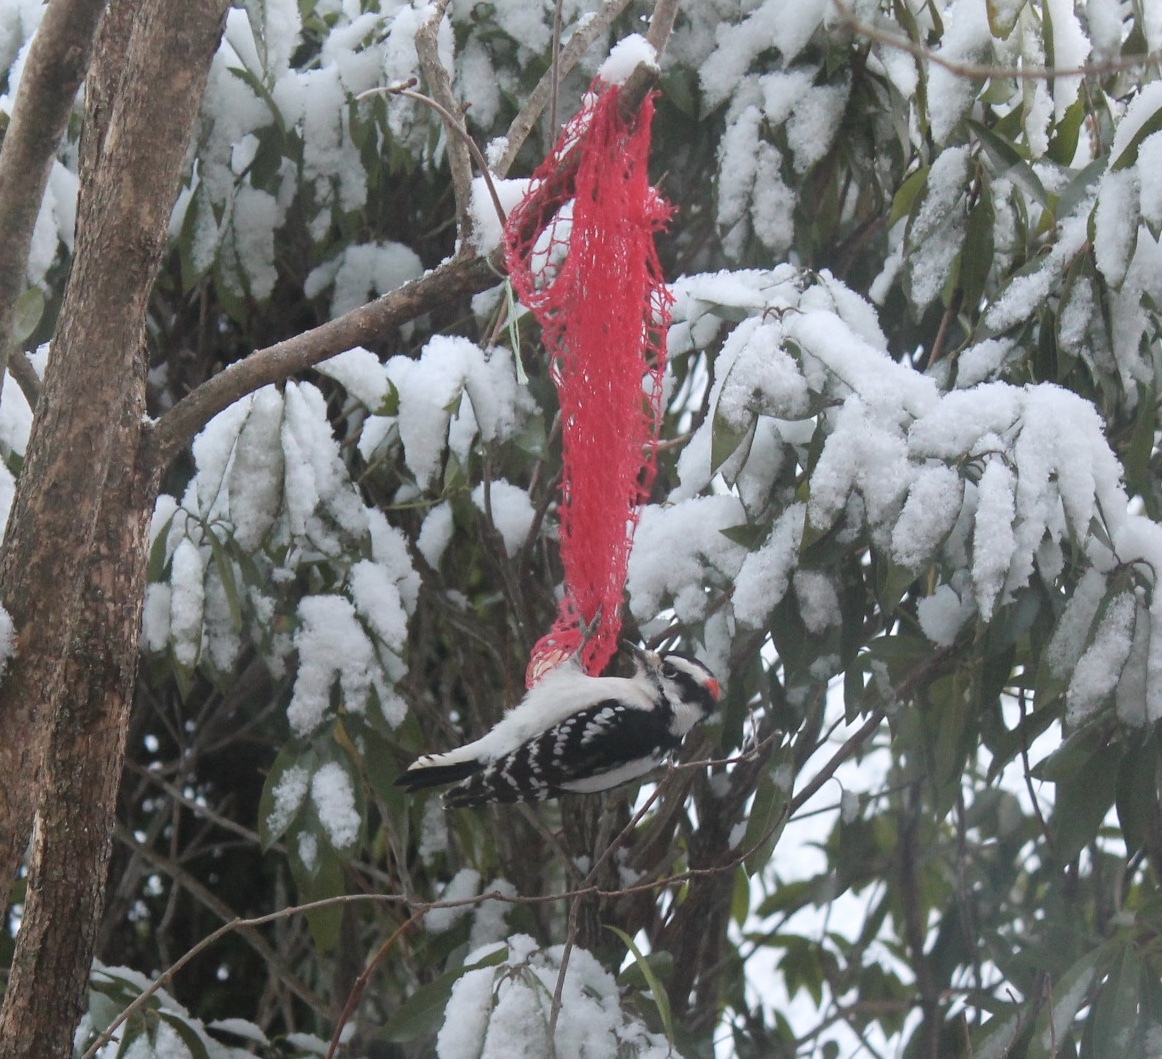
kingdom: Animalia
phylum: Chordata
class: Aves
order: Piciformes
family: Picidae
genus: Dryobates
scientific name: Dryobates pubescens
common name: Downy woodpecker
